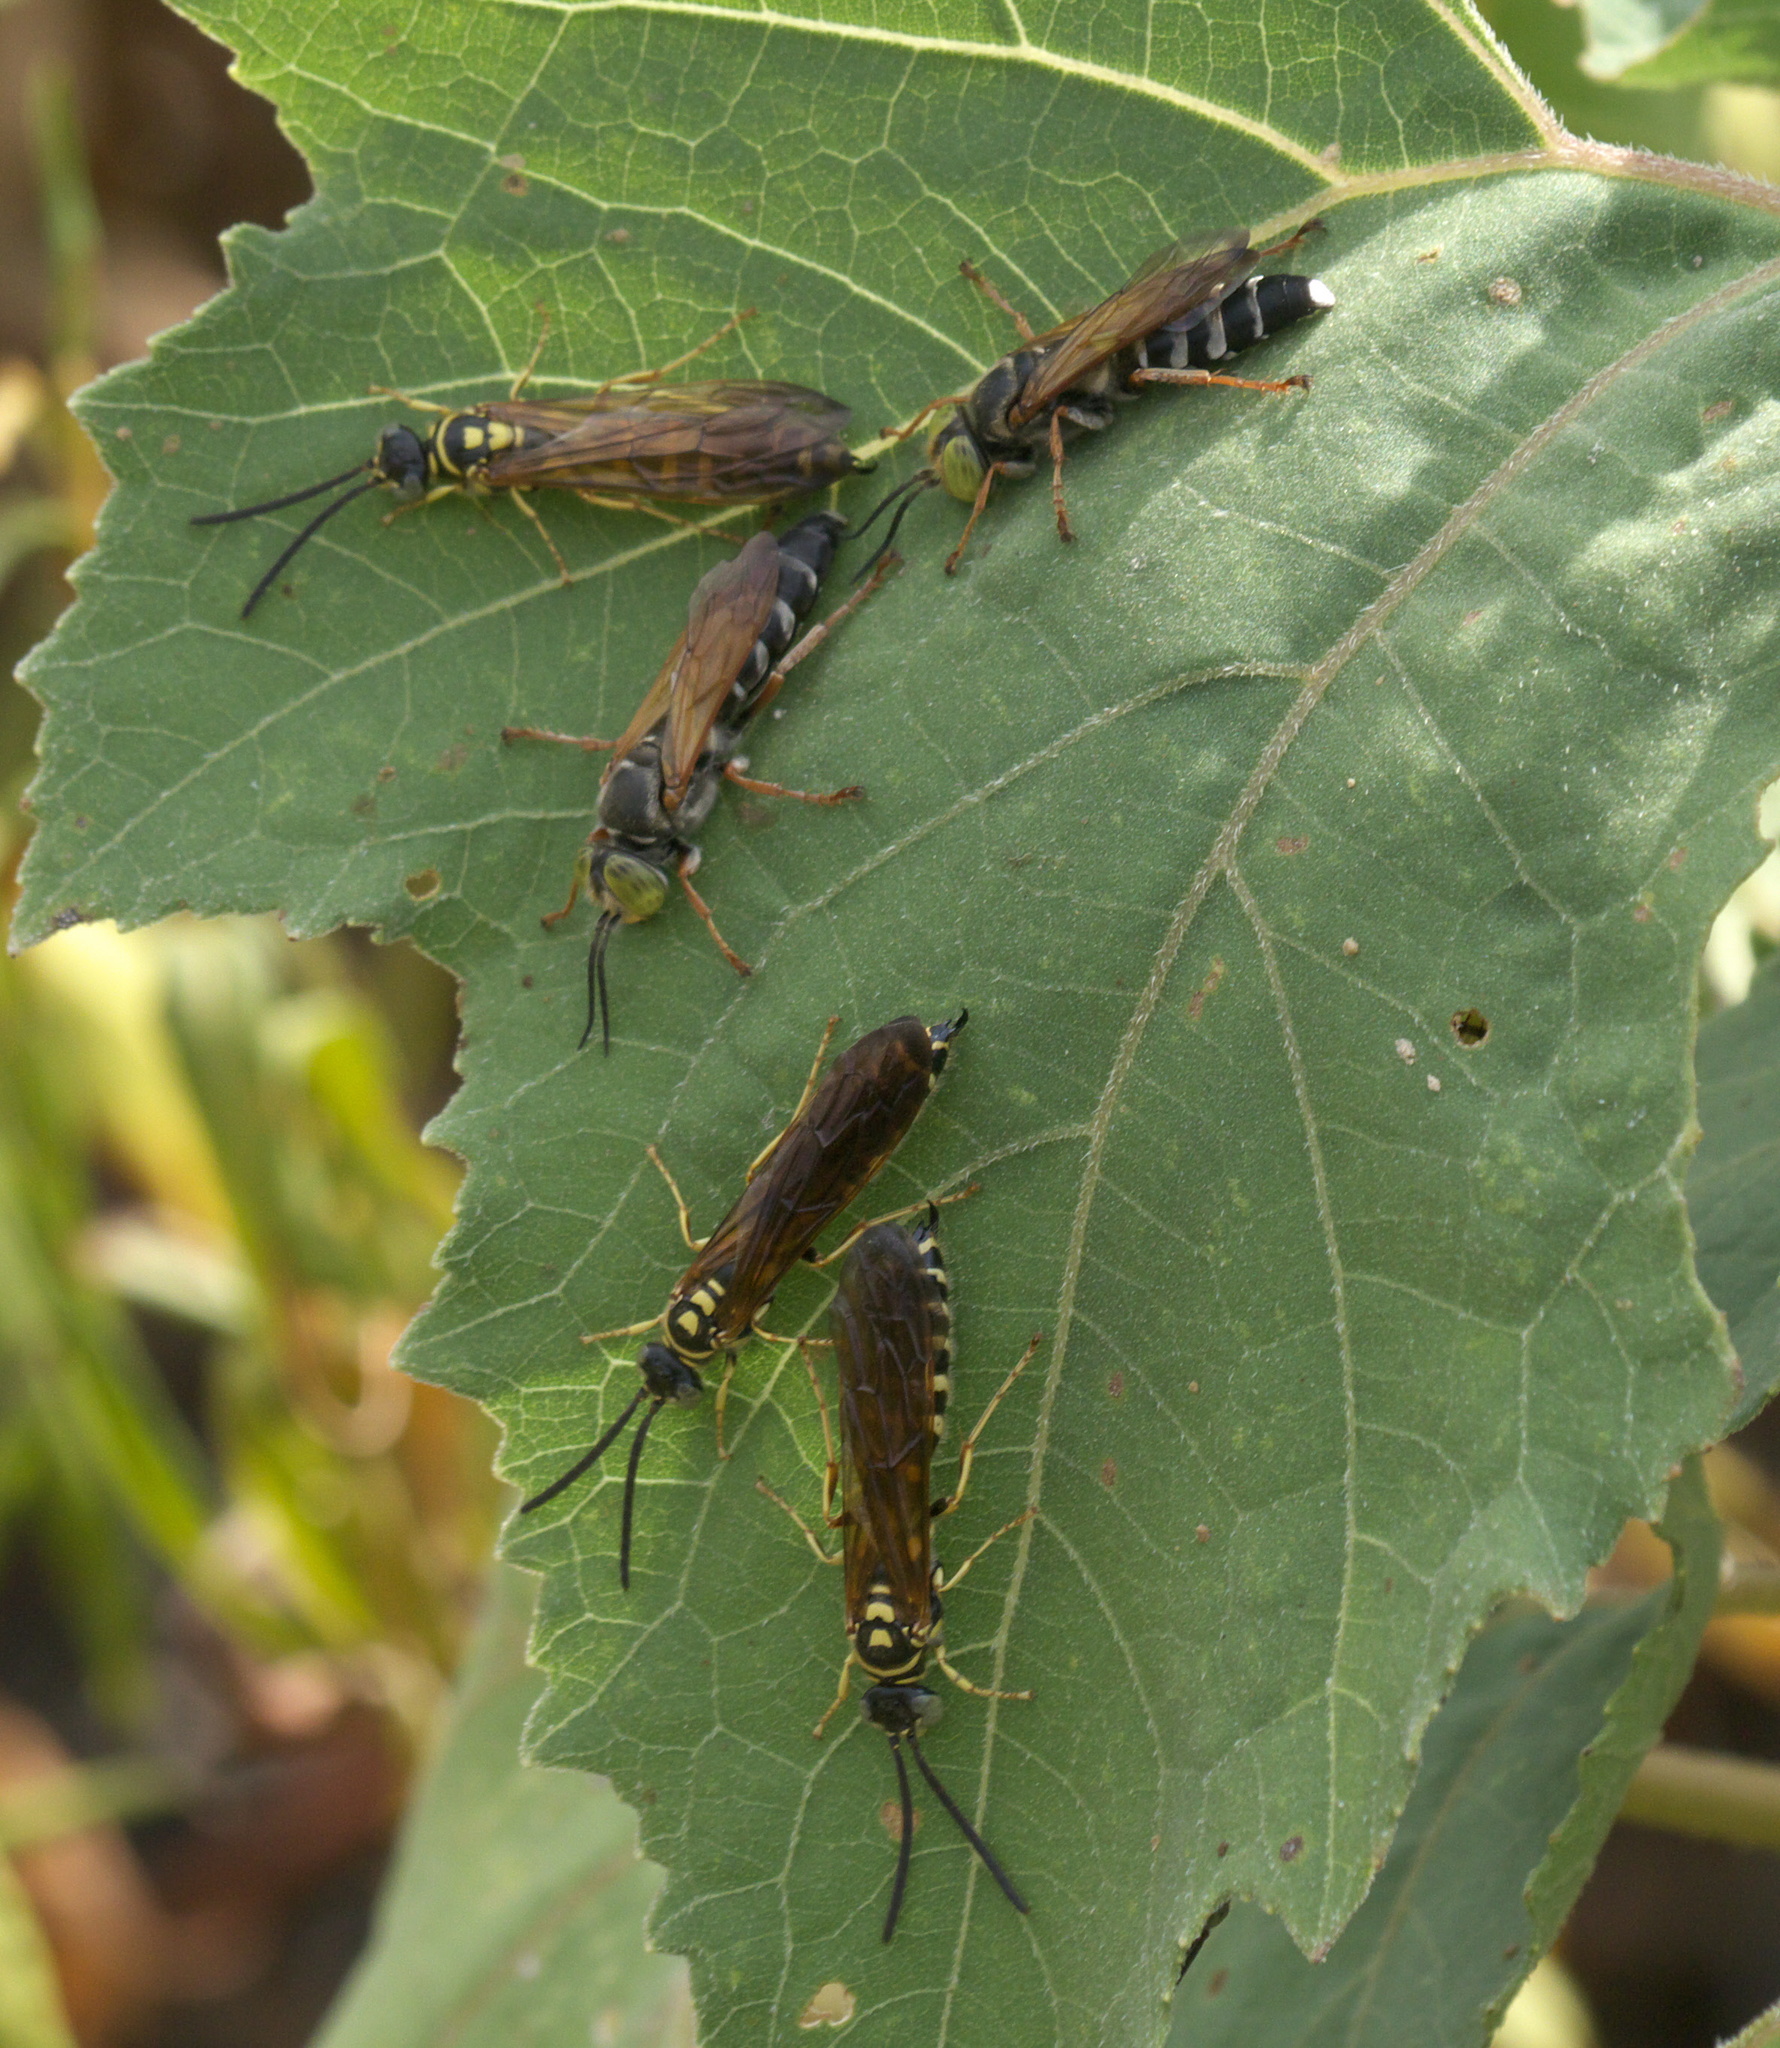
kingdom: Animalia
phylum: Arthropoda
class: Insecta
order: Hymenoptera
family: Tiphiidae
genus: Myzinum
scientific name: Myzinum quinquecinctum
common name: Five-banded thynnid wasp
